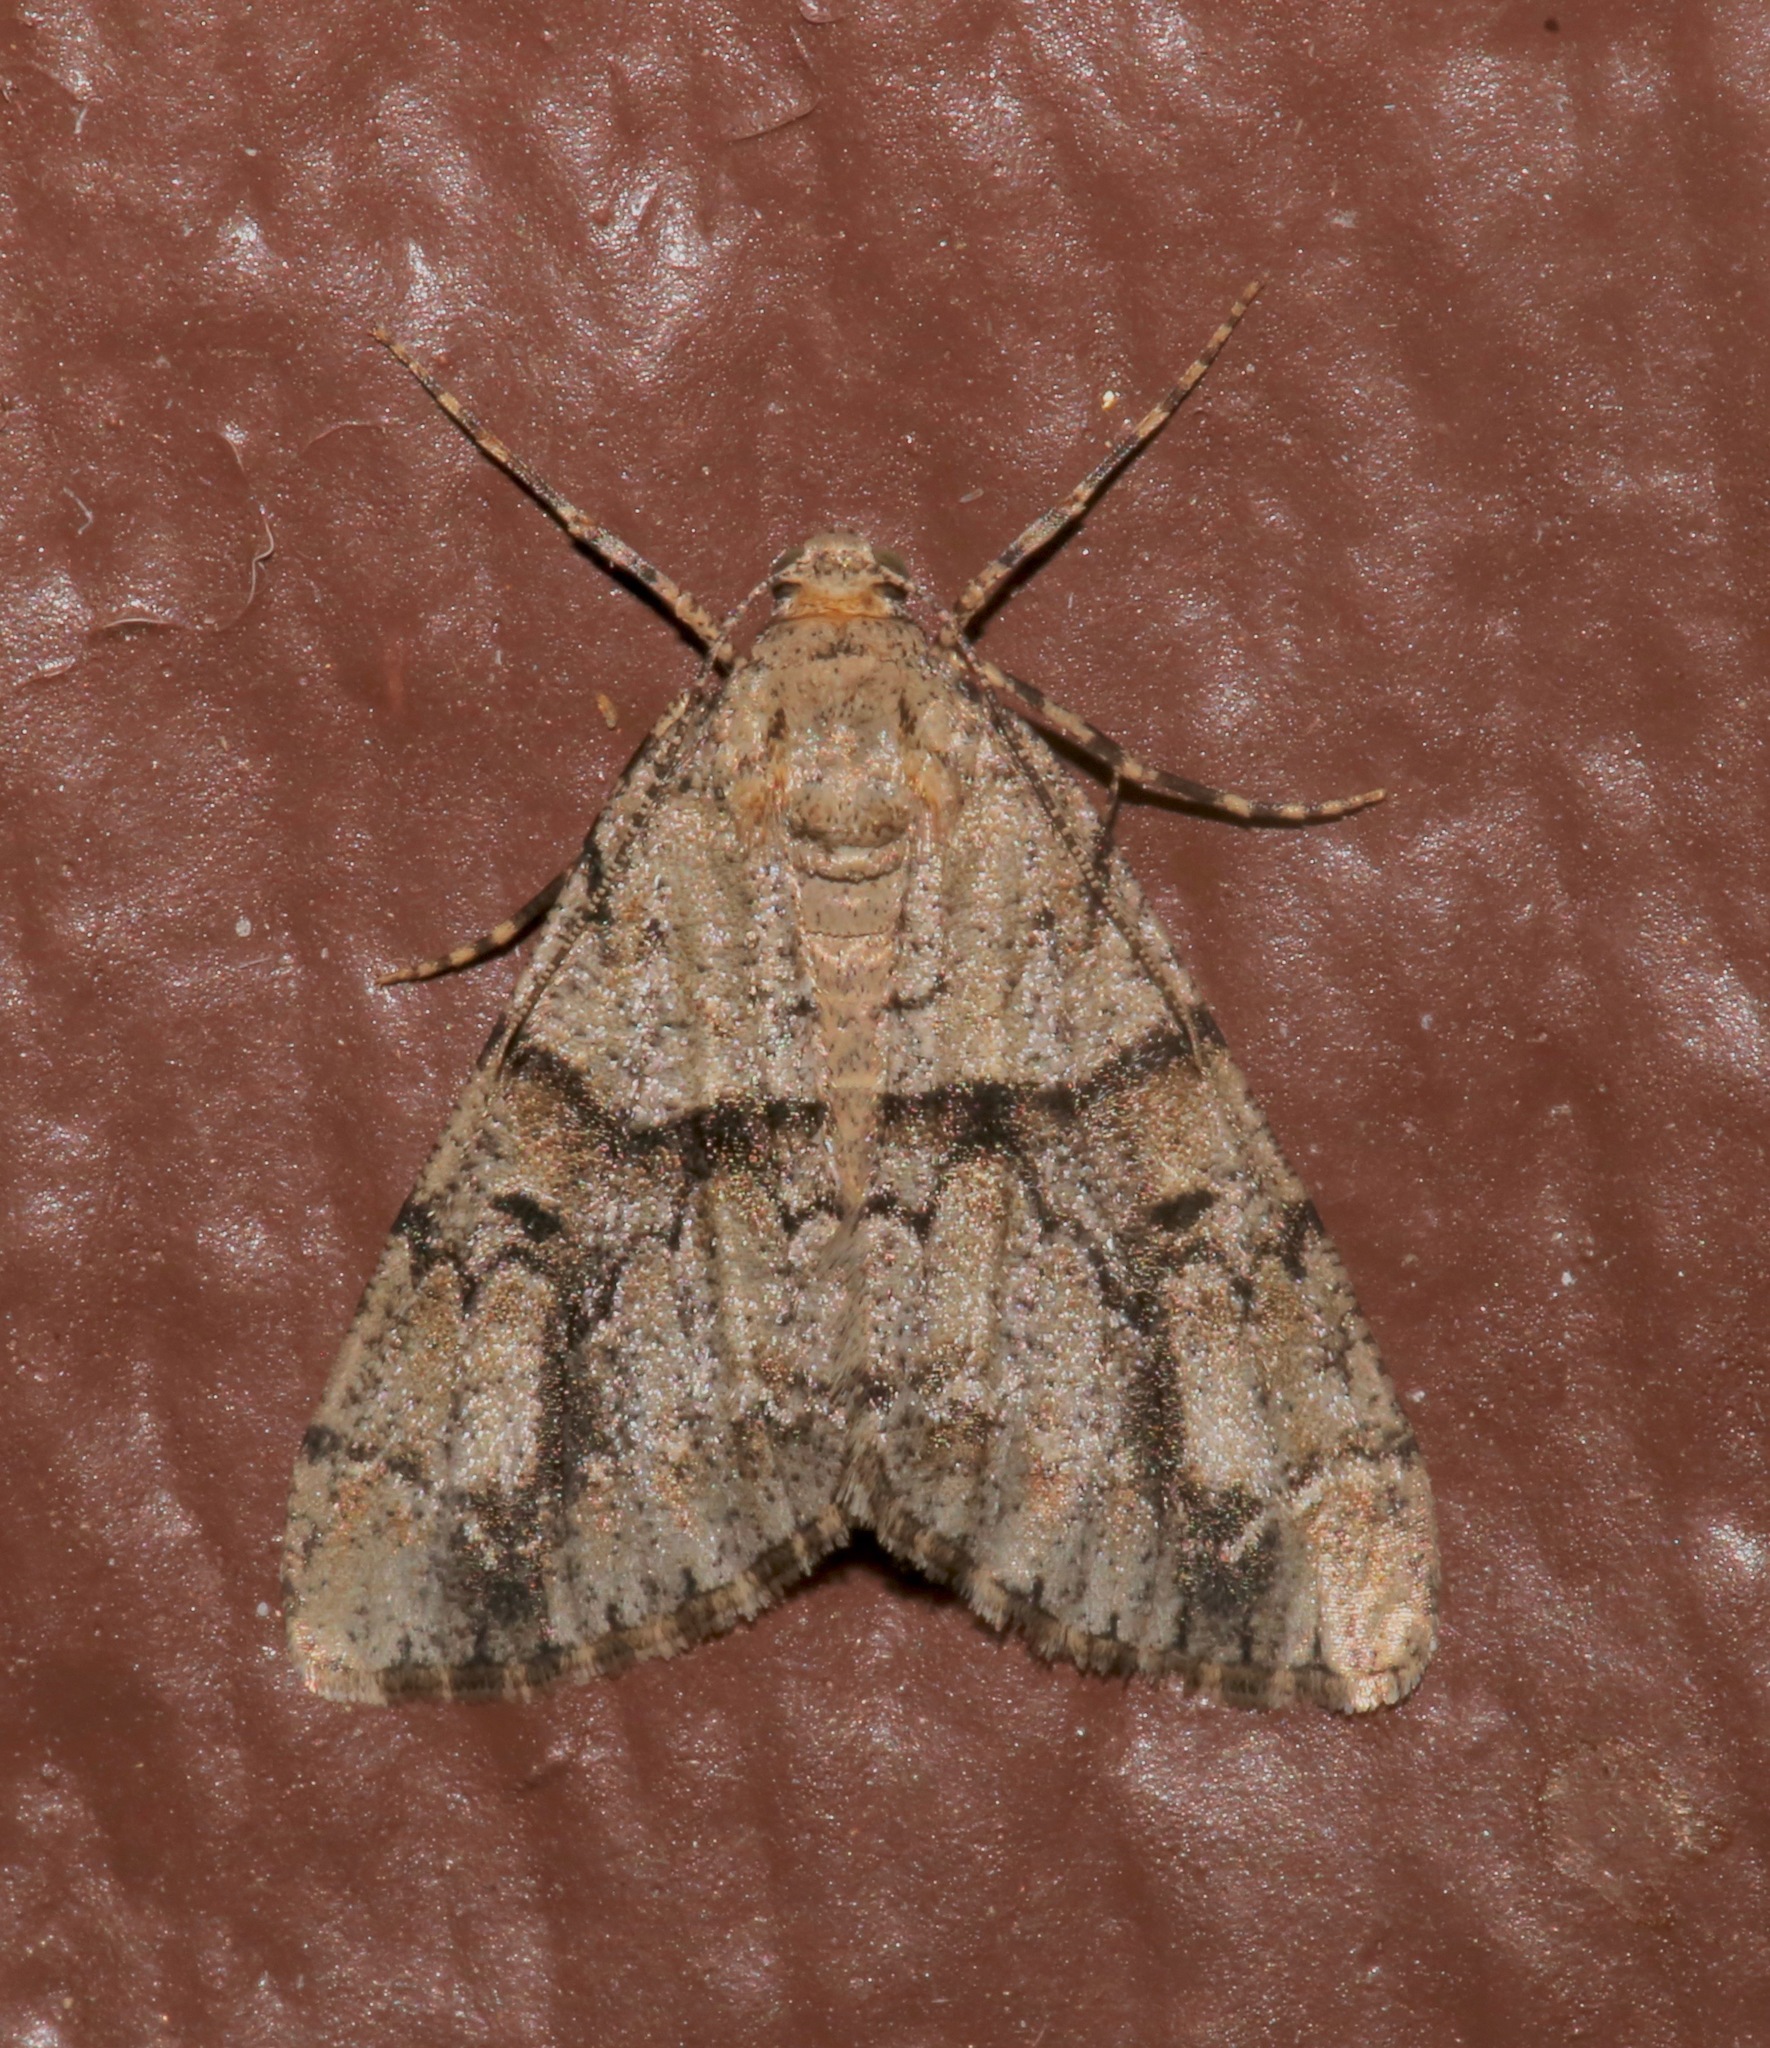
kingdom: Animalia
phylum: Arthropoda
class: Insecta
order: Lepidoptera
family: Geometridae
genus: Vinemina
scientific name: Vinemina opacaria
